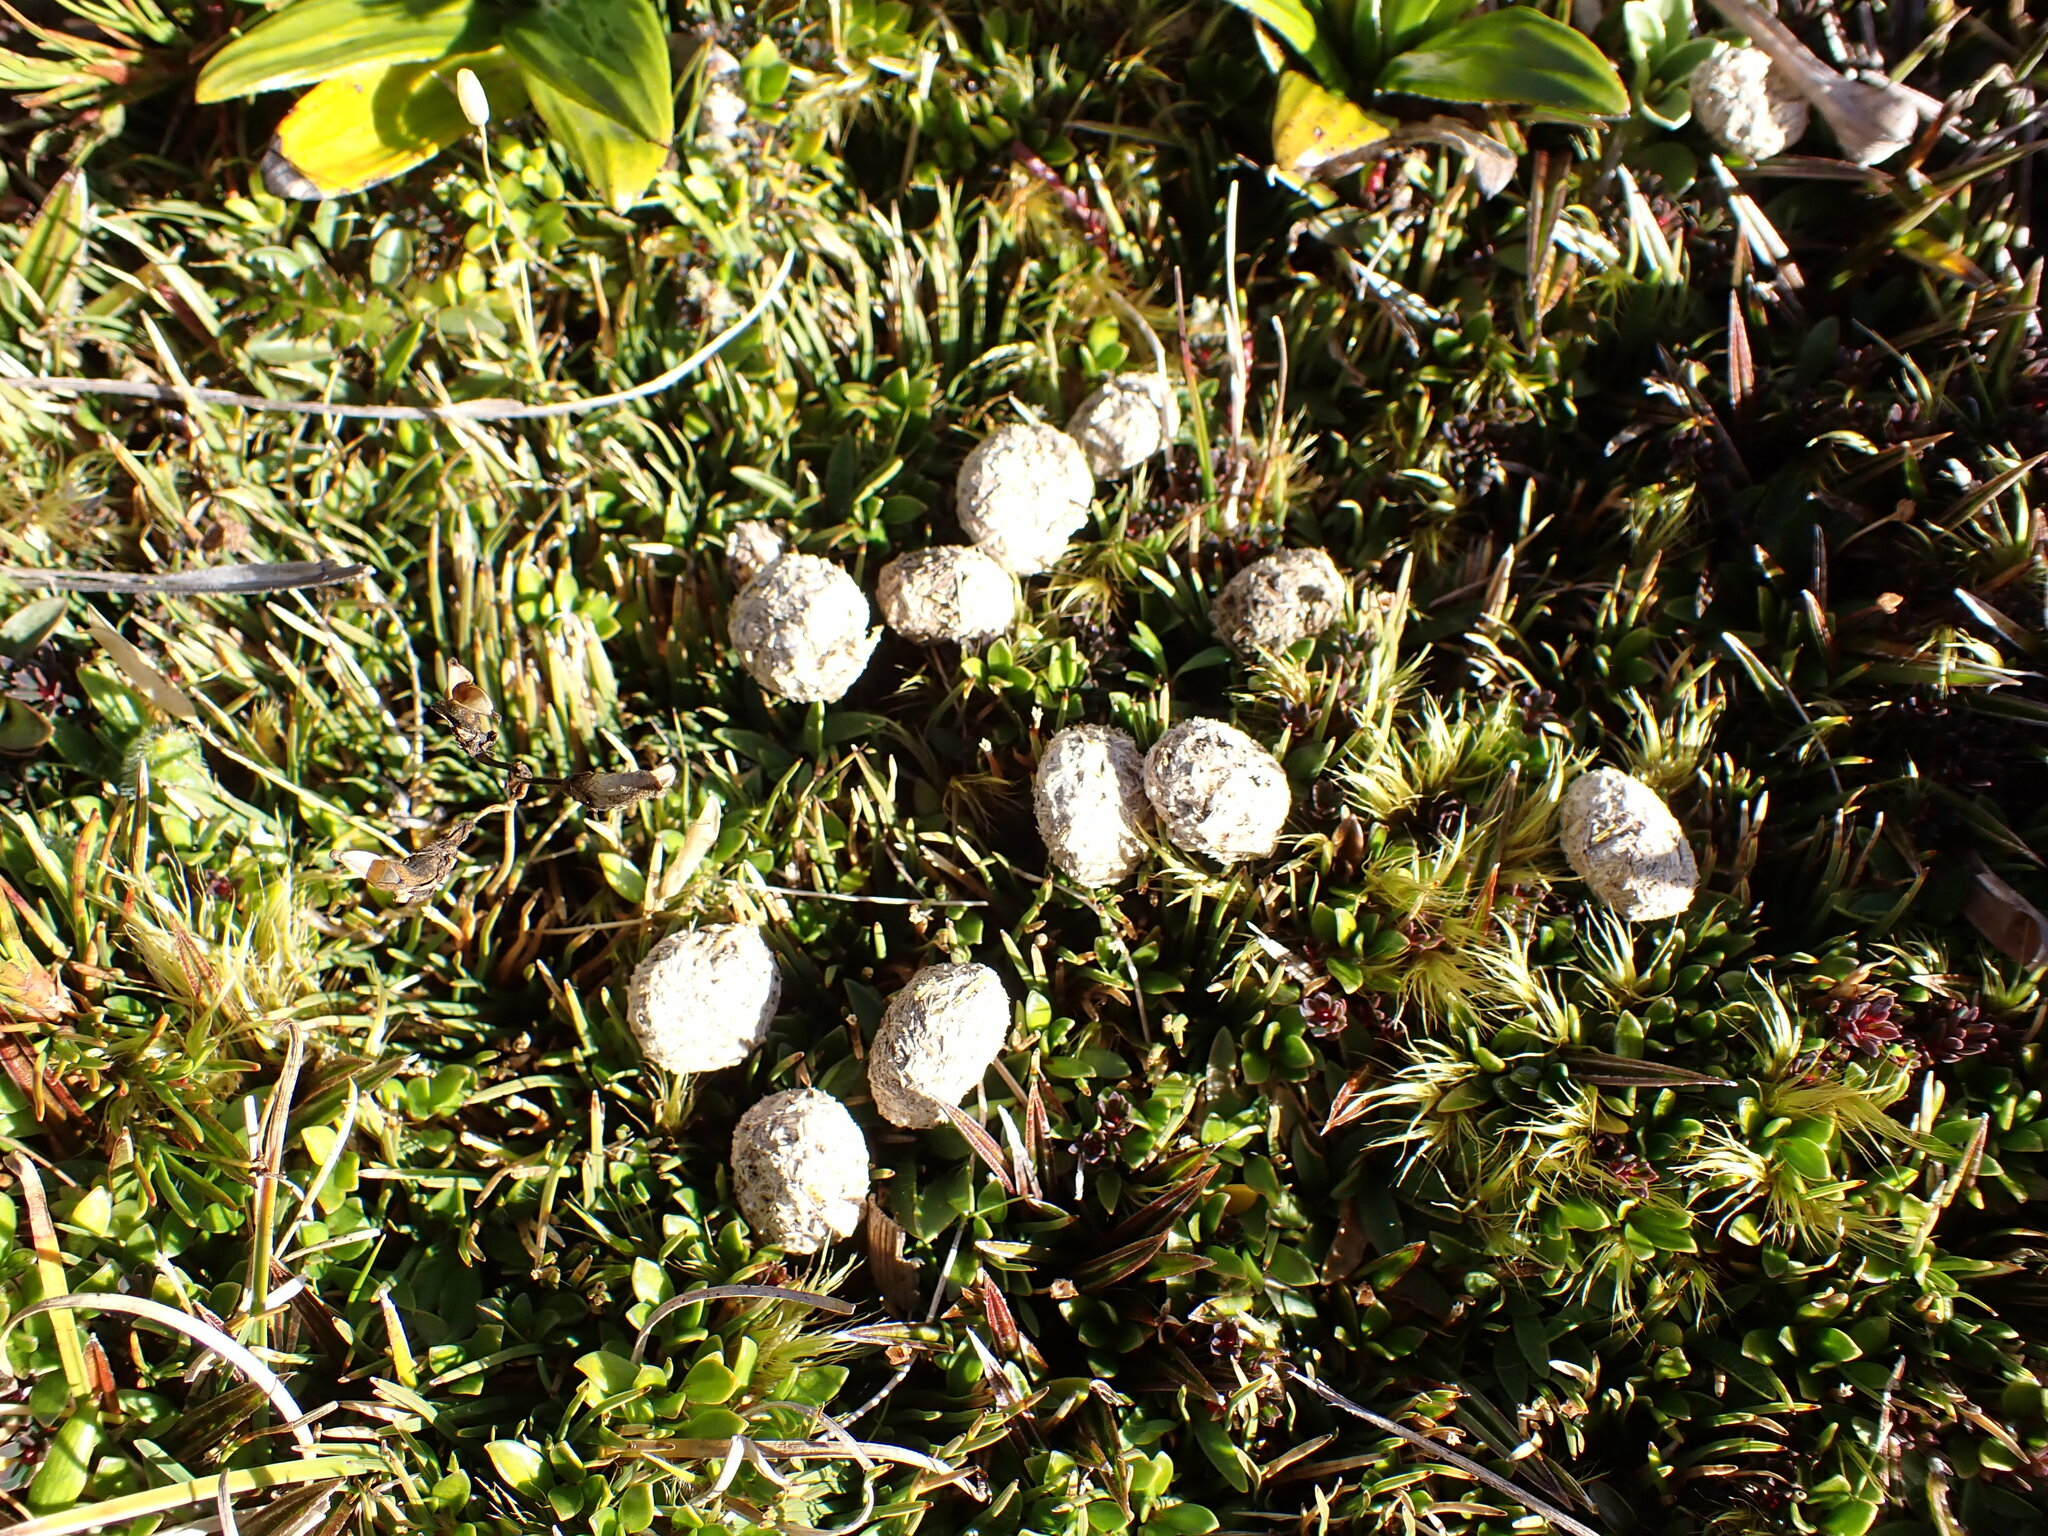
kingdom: Animalia
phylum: Chordata
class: Mammalia
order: Lagomorpha
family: Leporidae
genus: Lepus
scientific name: Lepus europaeus
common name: European hare
